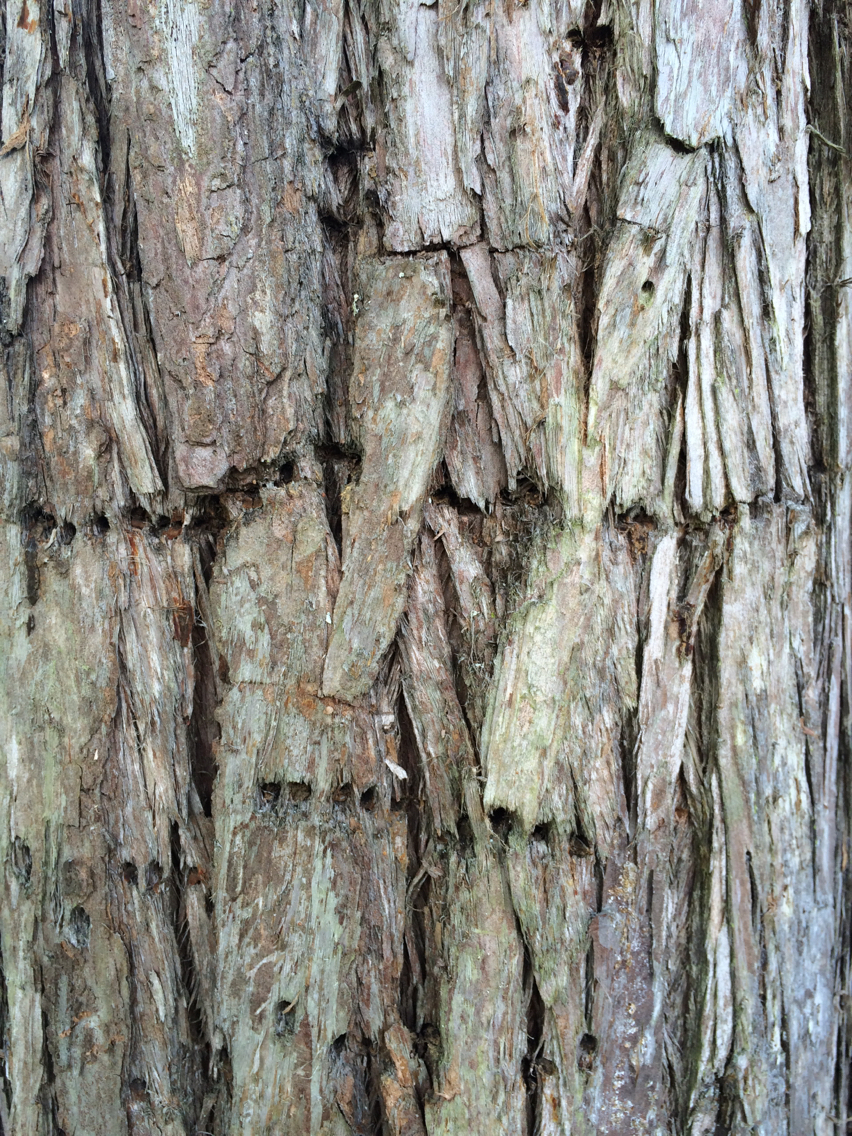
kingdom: Animalia
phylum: Chordata
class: Aves
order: Piciformes
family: Picidae
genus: Sphyrapicus
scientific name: Sphyrapicus varius
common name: Yellow-bellied sapsucker
